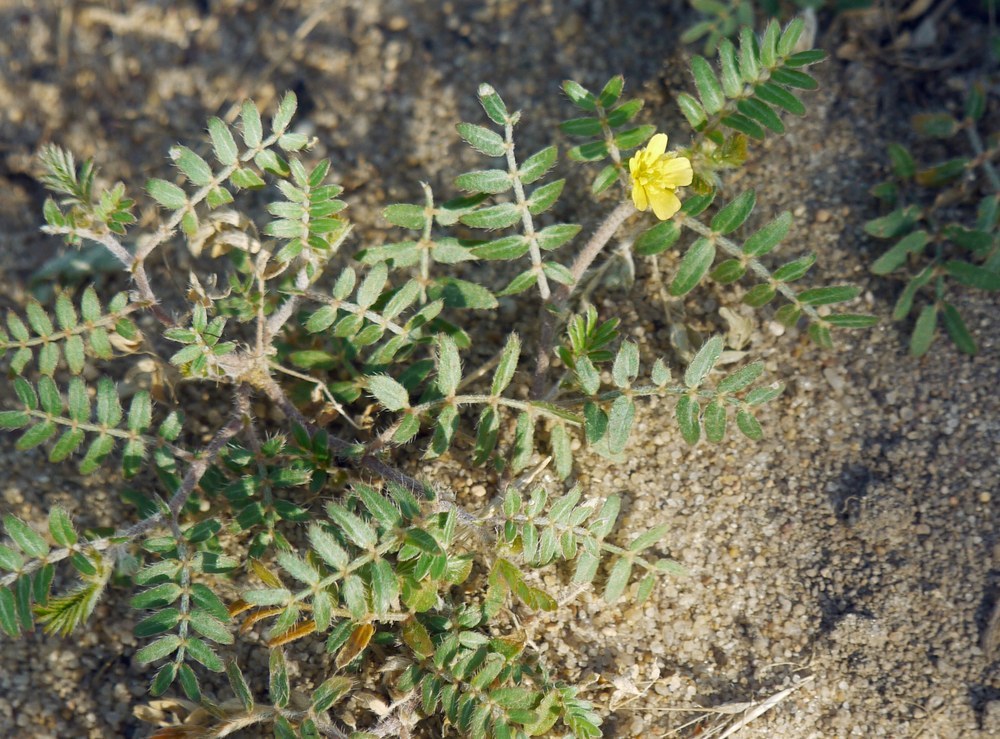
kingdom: Plantae
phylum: Tracheophyta
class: Magnoliopsida
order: Zygophyllales
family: Zygophyllaceae
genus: Tribulus
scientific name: Tribulus terrestris
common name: Puncturevine
